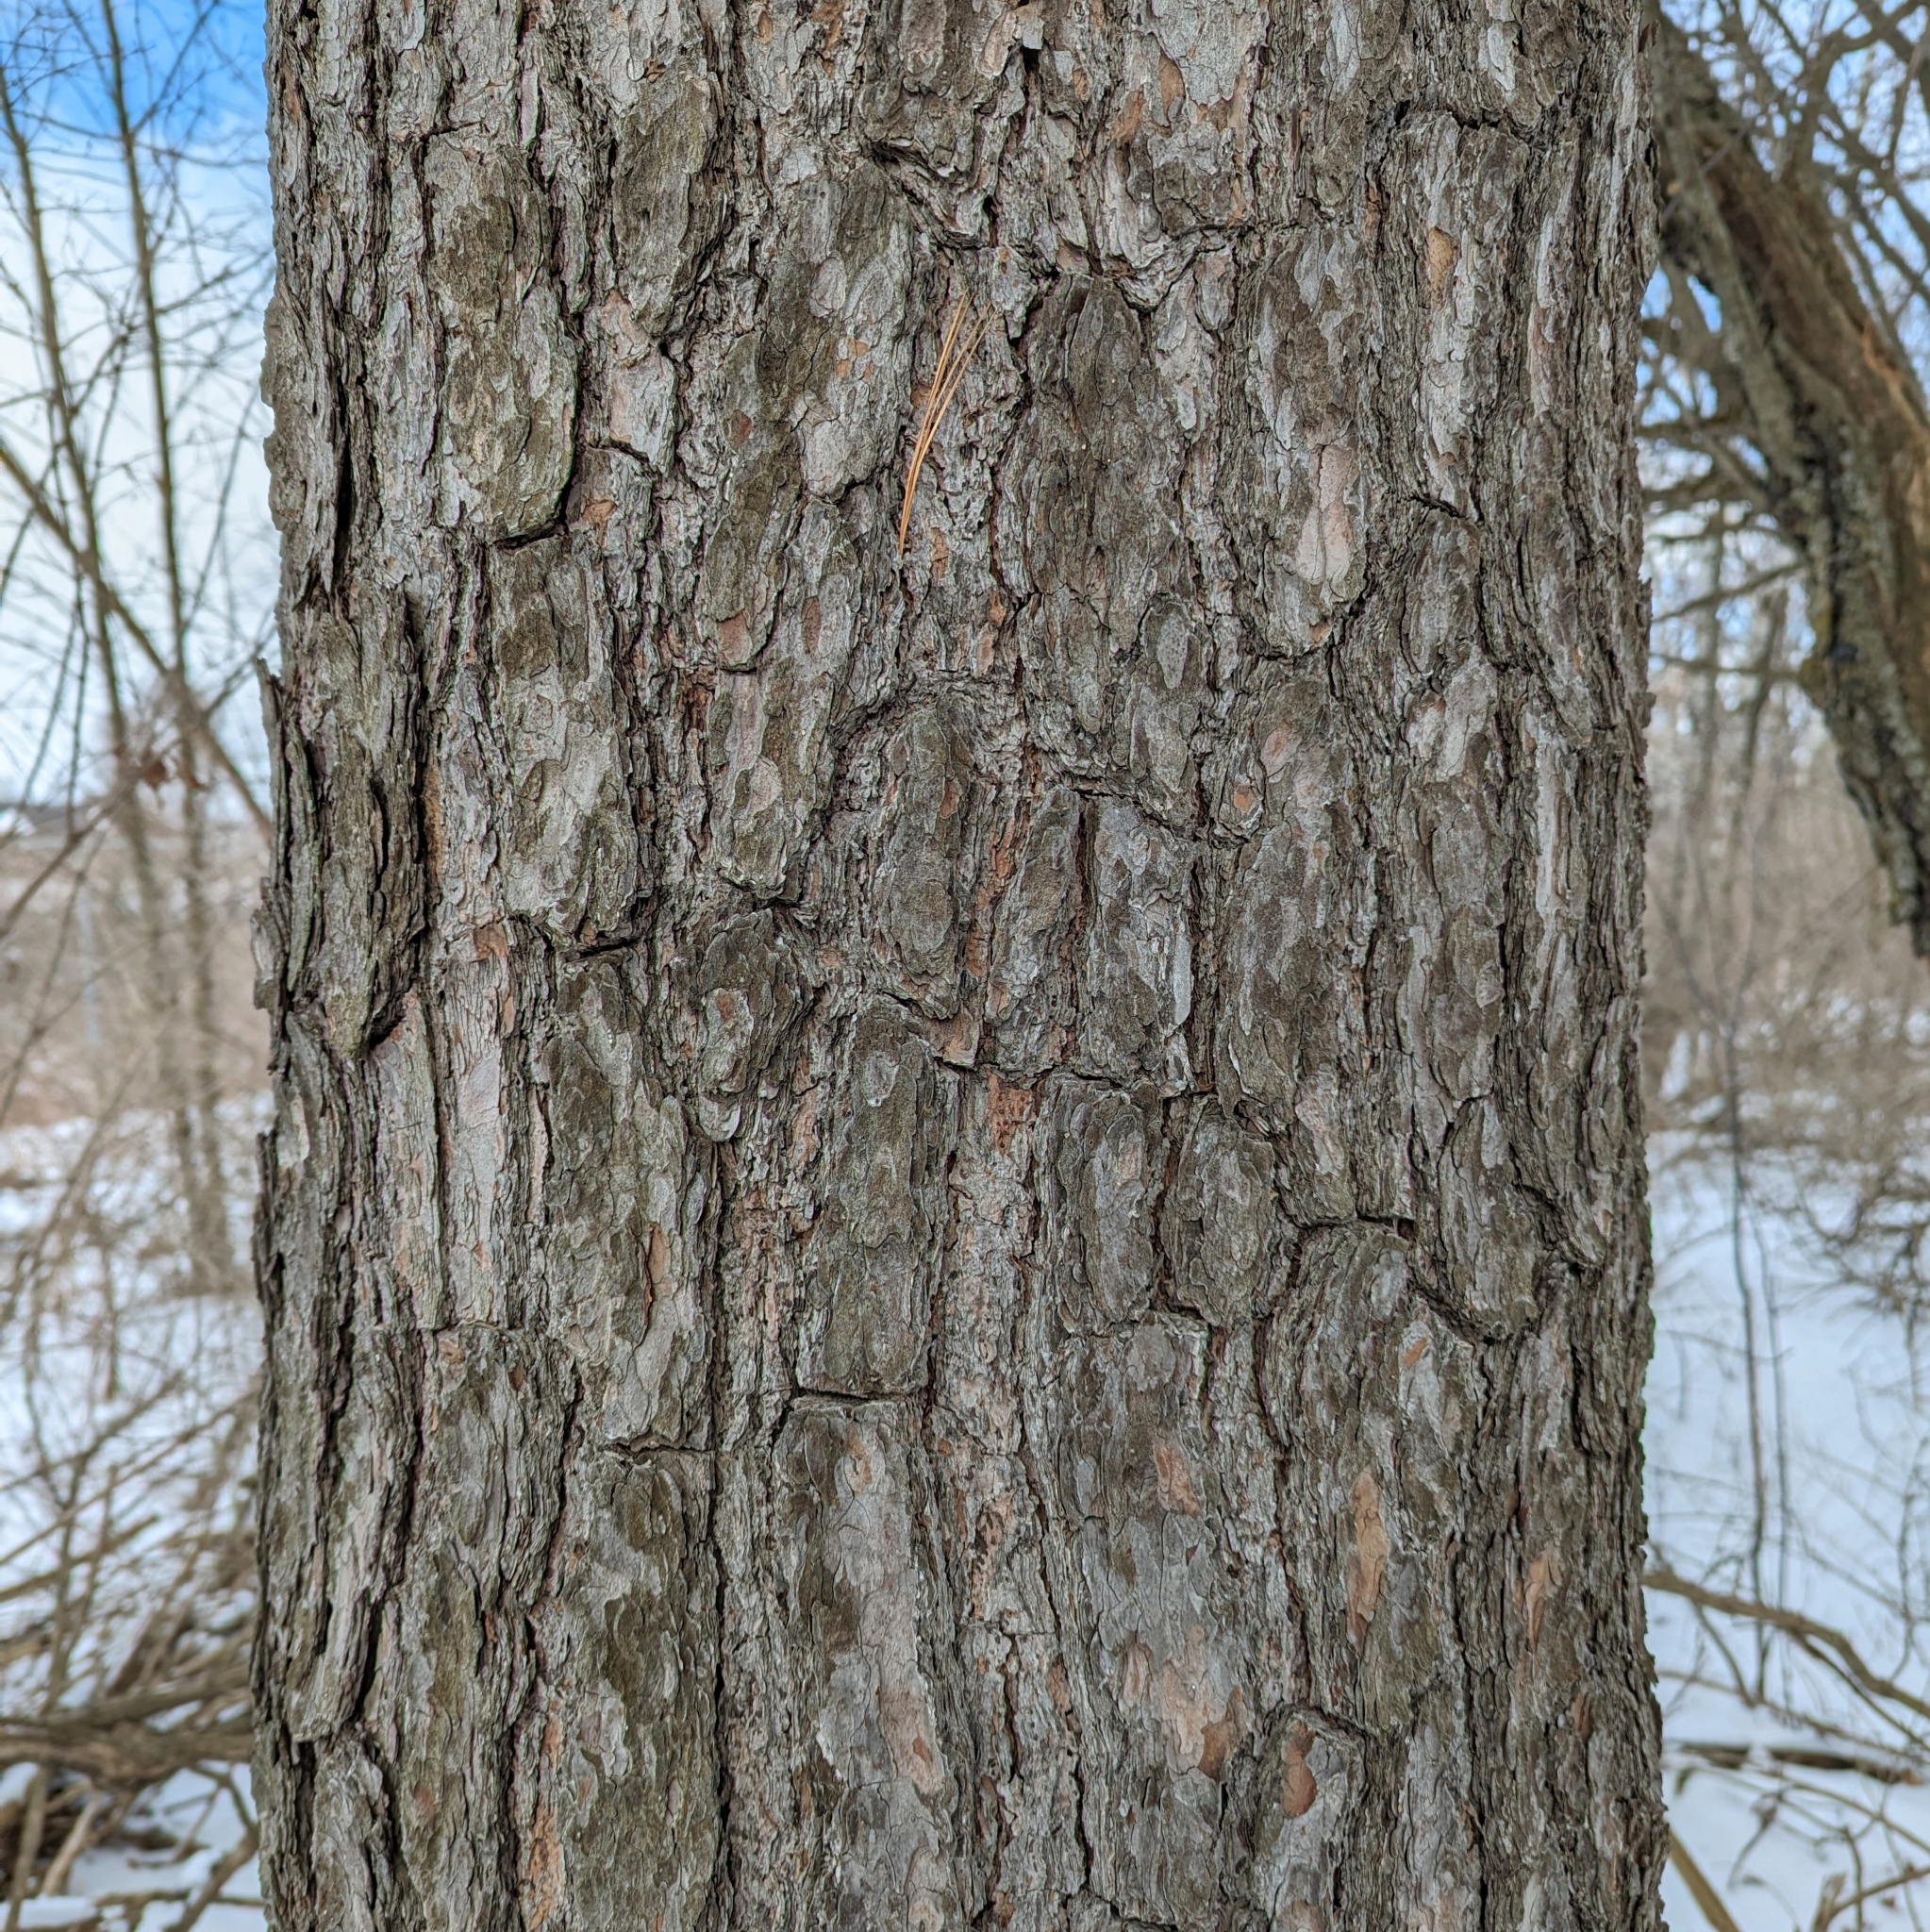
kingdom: Plantae
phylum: Tracheophyta
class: Pinopsida
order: Pinales
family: Pinaceae
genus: Pinus
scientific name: Pinus strobus
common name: Weymouth pine
